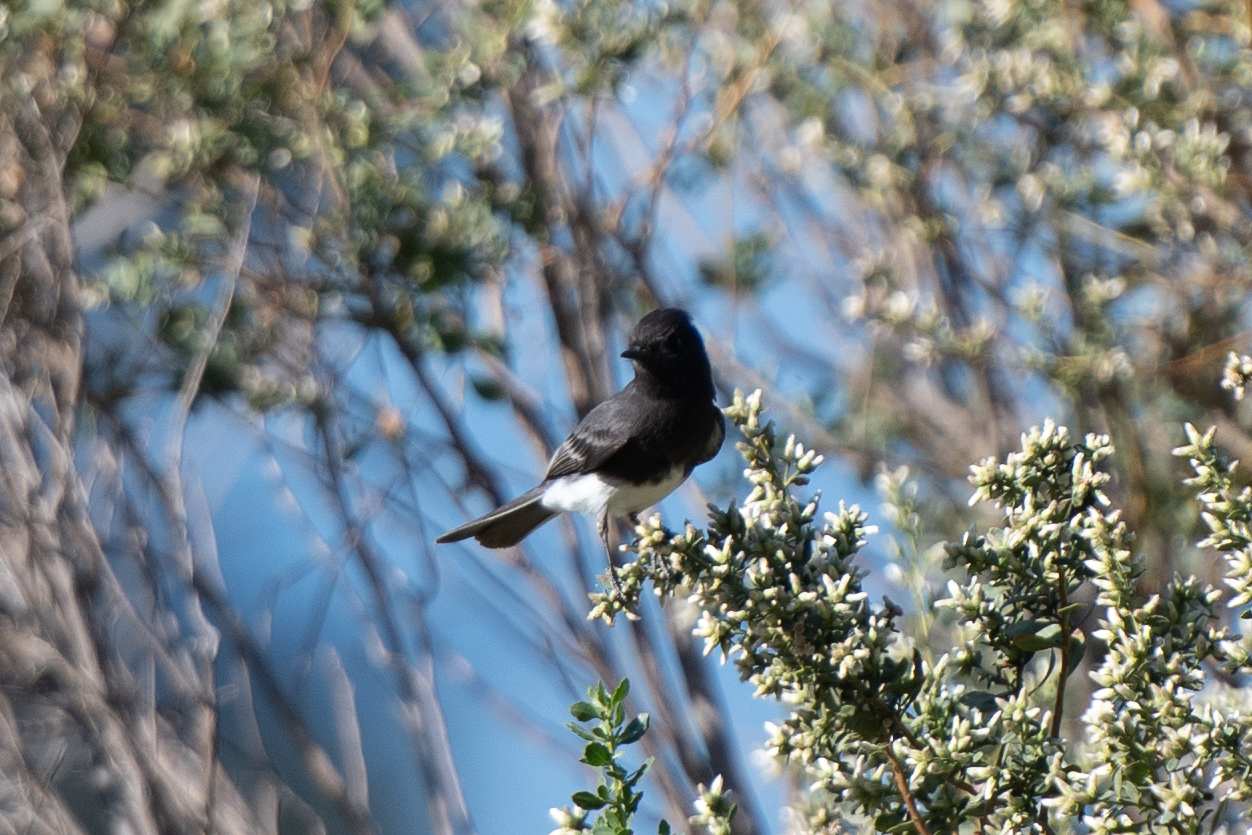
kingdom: Animalia
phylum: Chordata
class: Aves
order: Passeriformes
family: Tyrannidae
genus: Sayornis
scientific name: Sayornis nigricans
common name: Black phoebe
